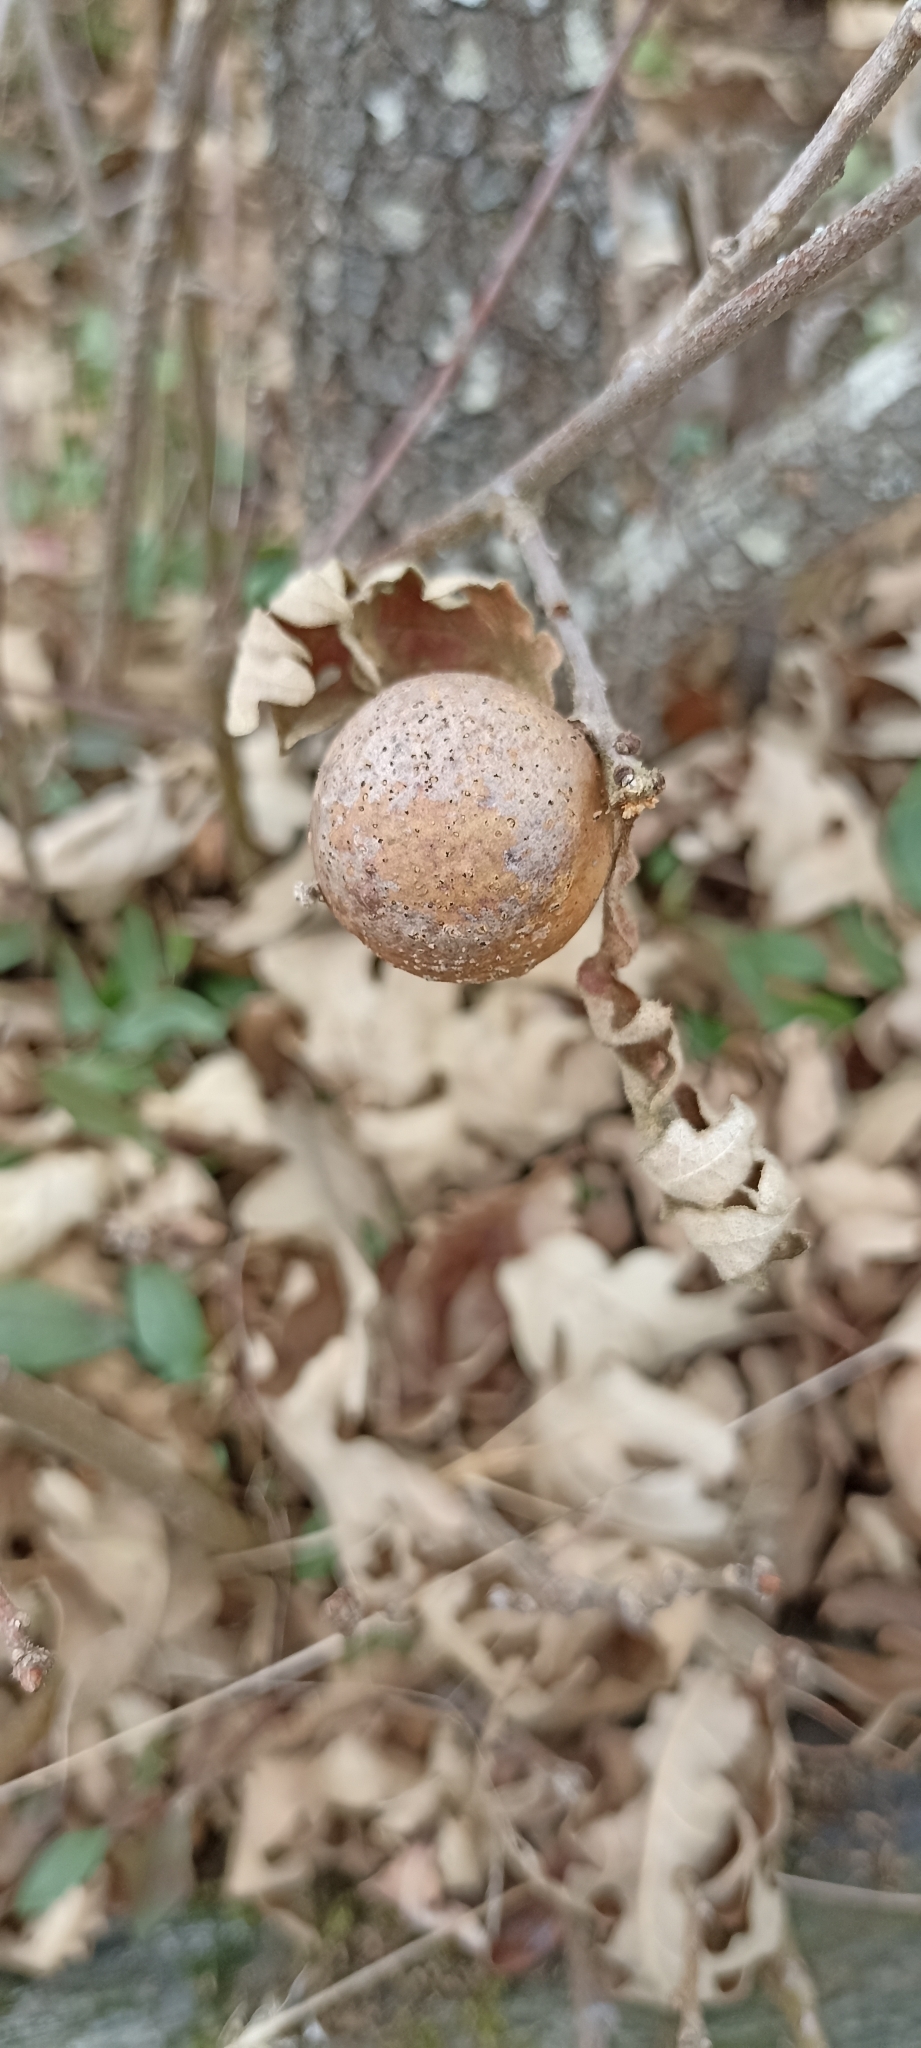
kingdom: Animalia
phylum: Arthropoda
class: Insecta
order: Hymenoptera
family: Cynipidae
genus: Andricus
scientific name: Andricus kollari
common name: Marble gall
